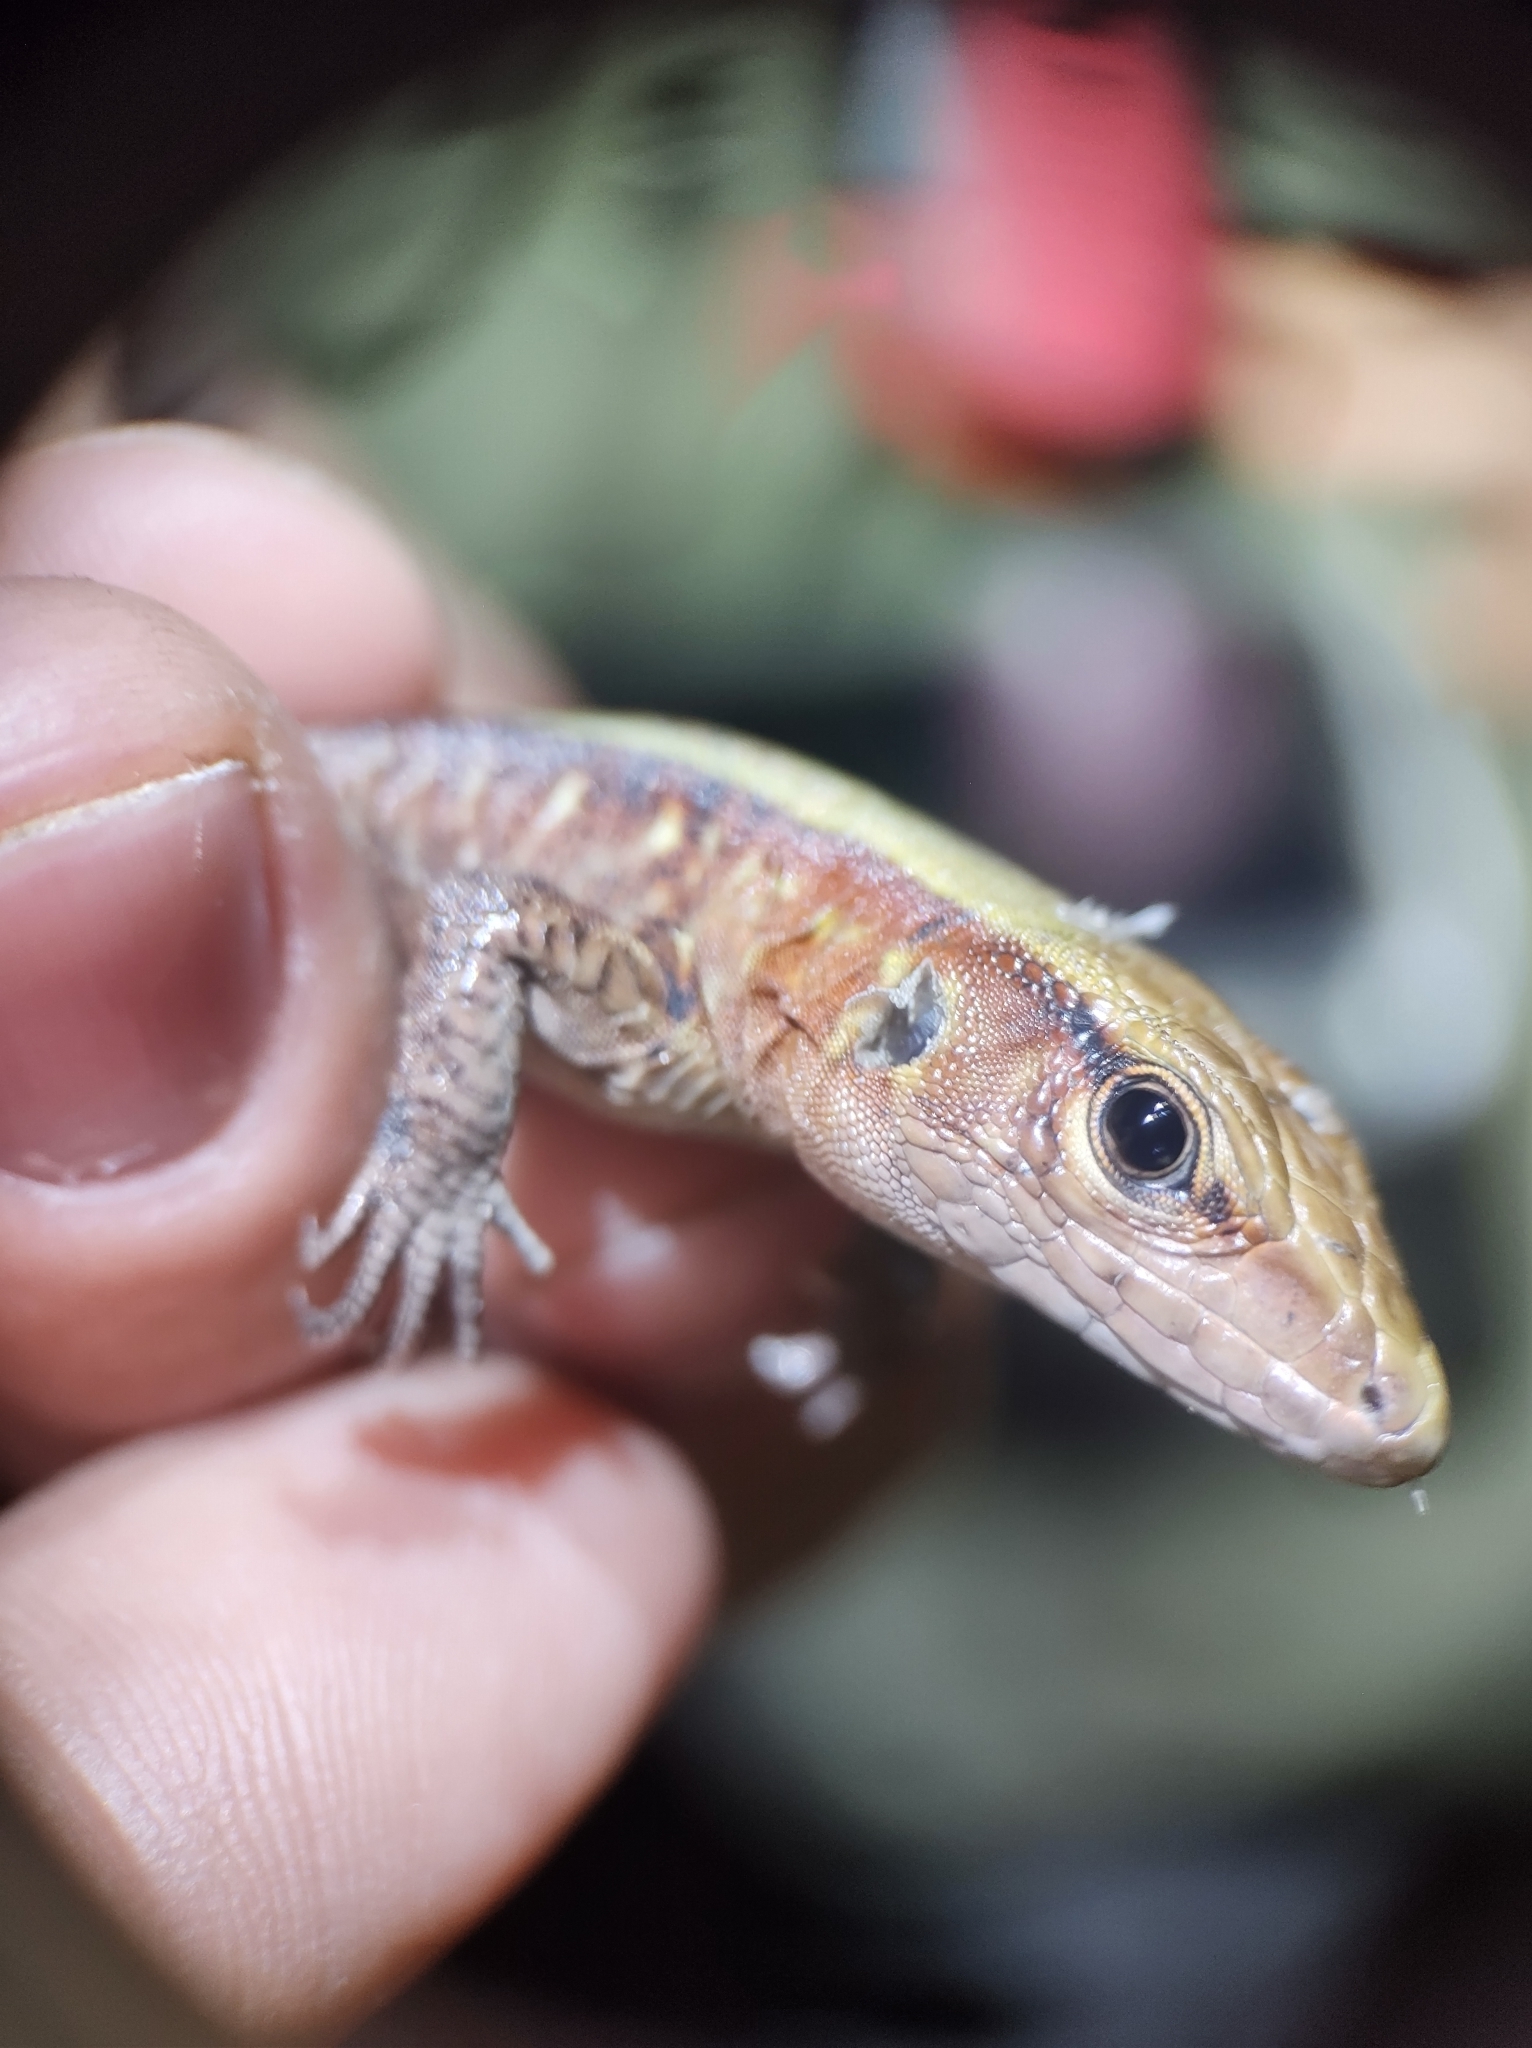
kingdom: Animalia
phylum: Chordata
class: Squamata
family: Teiidae
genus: Holcosus
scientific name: Holcosus undulatus
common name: Rainbow ameiva
